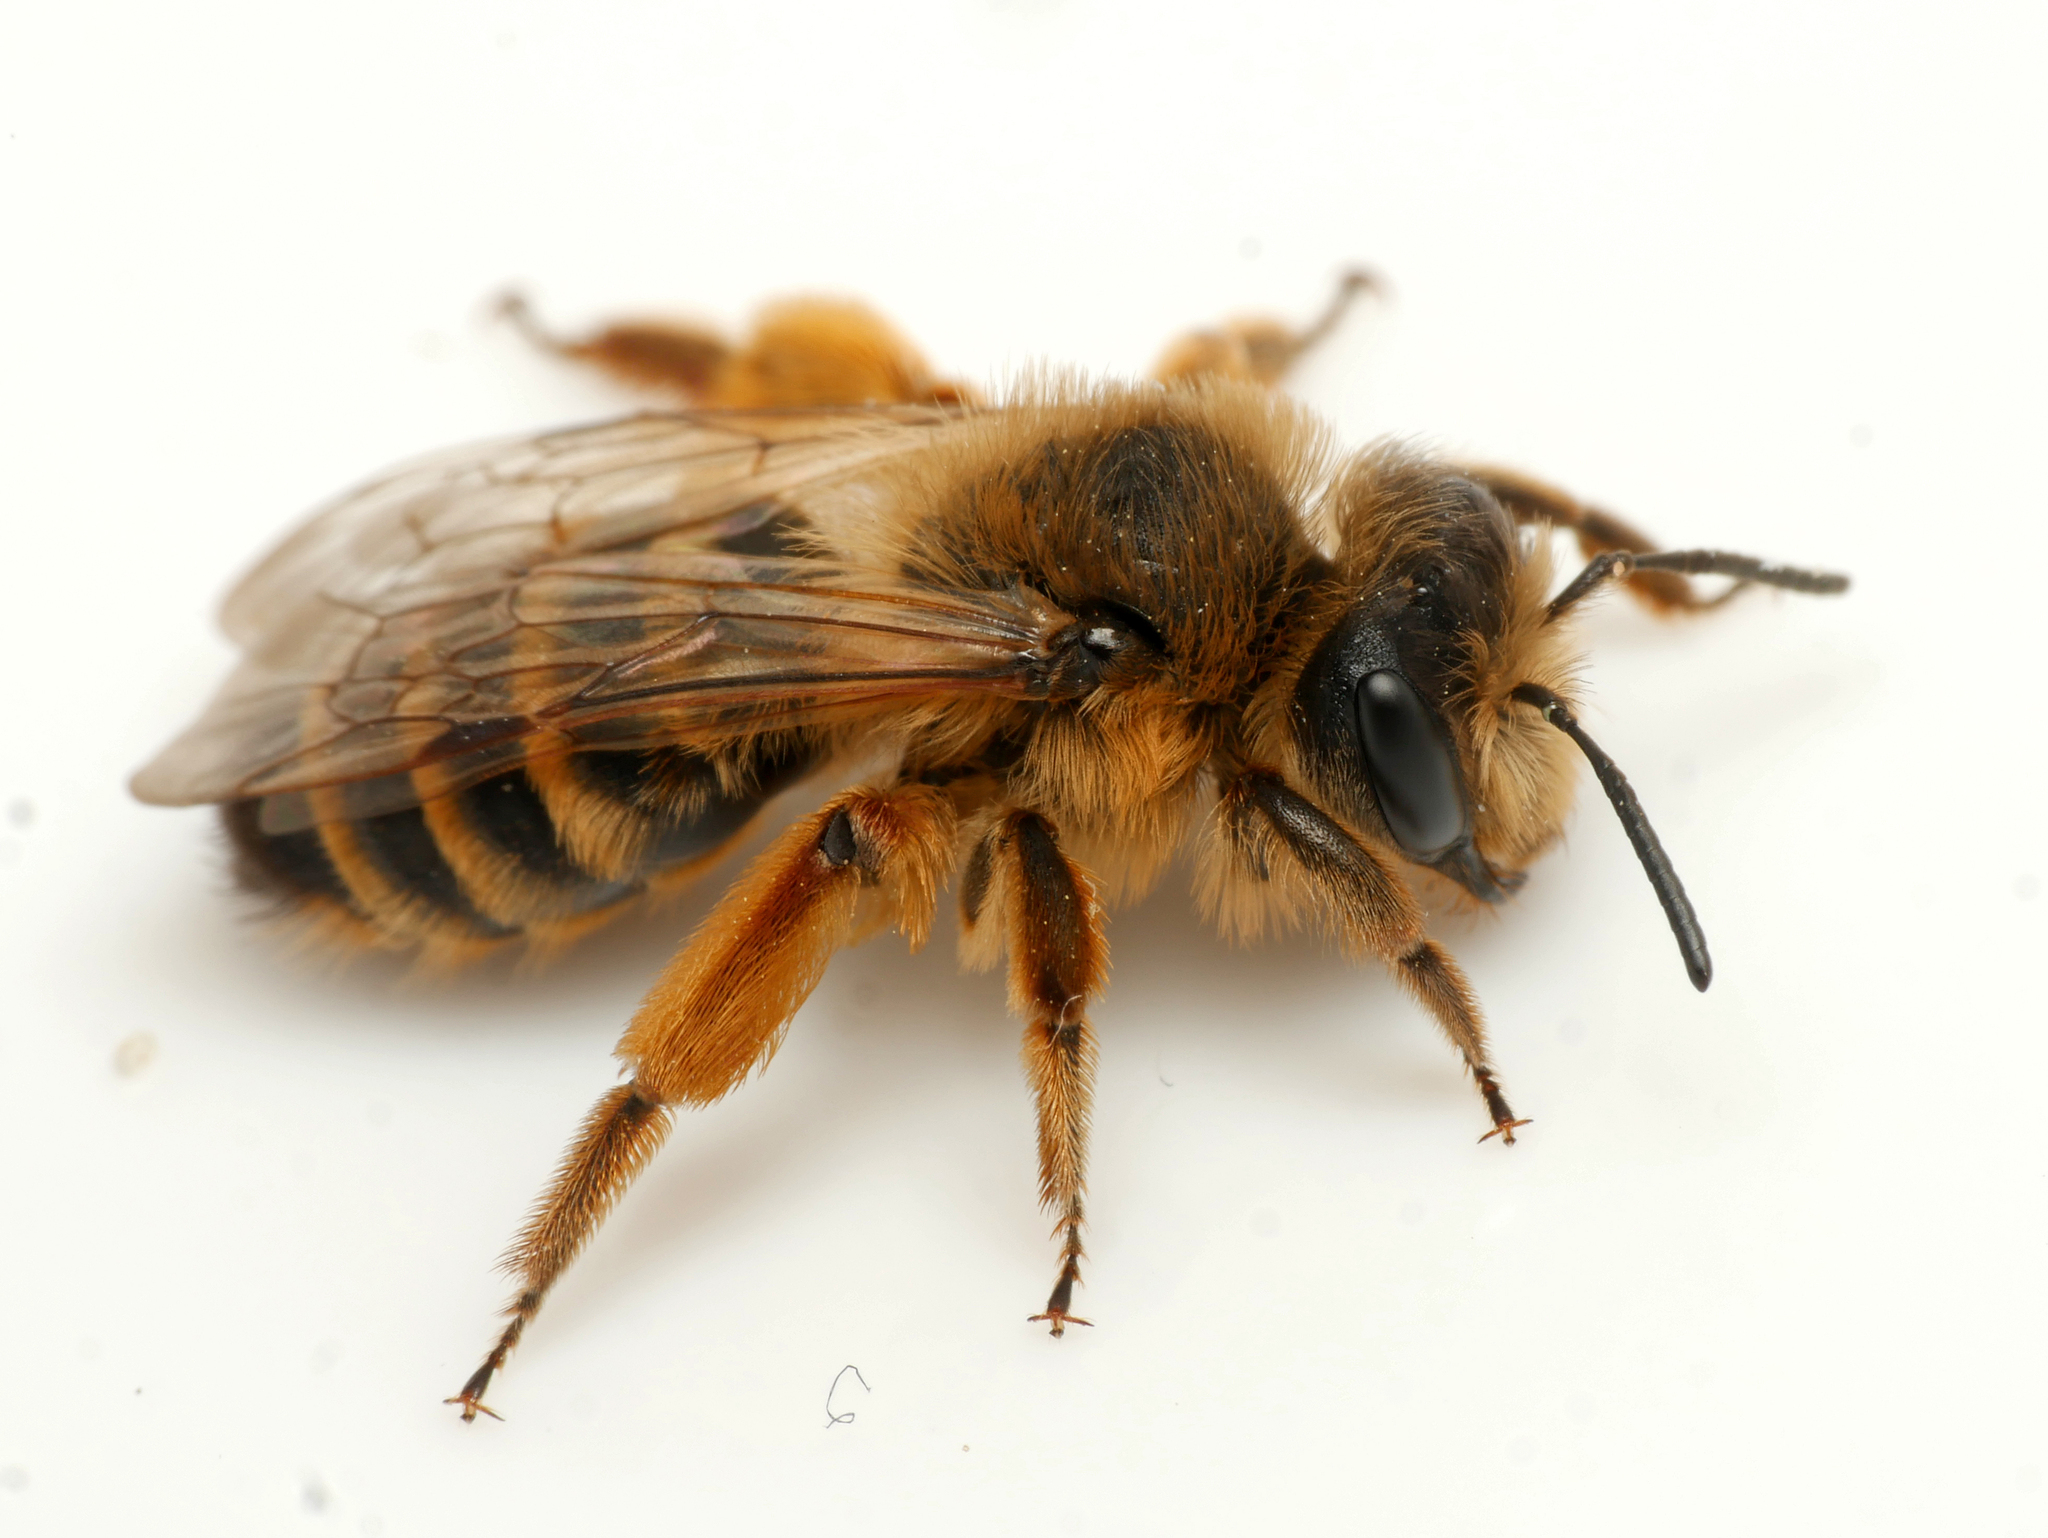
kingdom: Animalia
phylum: Arthropoda
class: Insecta
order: Hymenoptera
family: Andrenidae
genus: Andrena
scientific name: Andrena flavipes
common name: Yellow-legged mining bee
